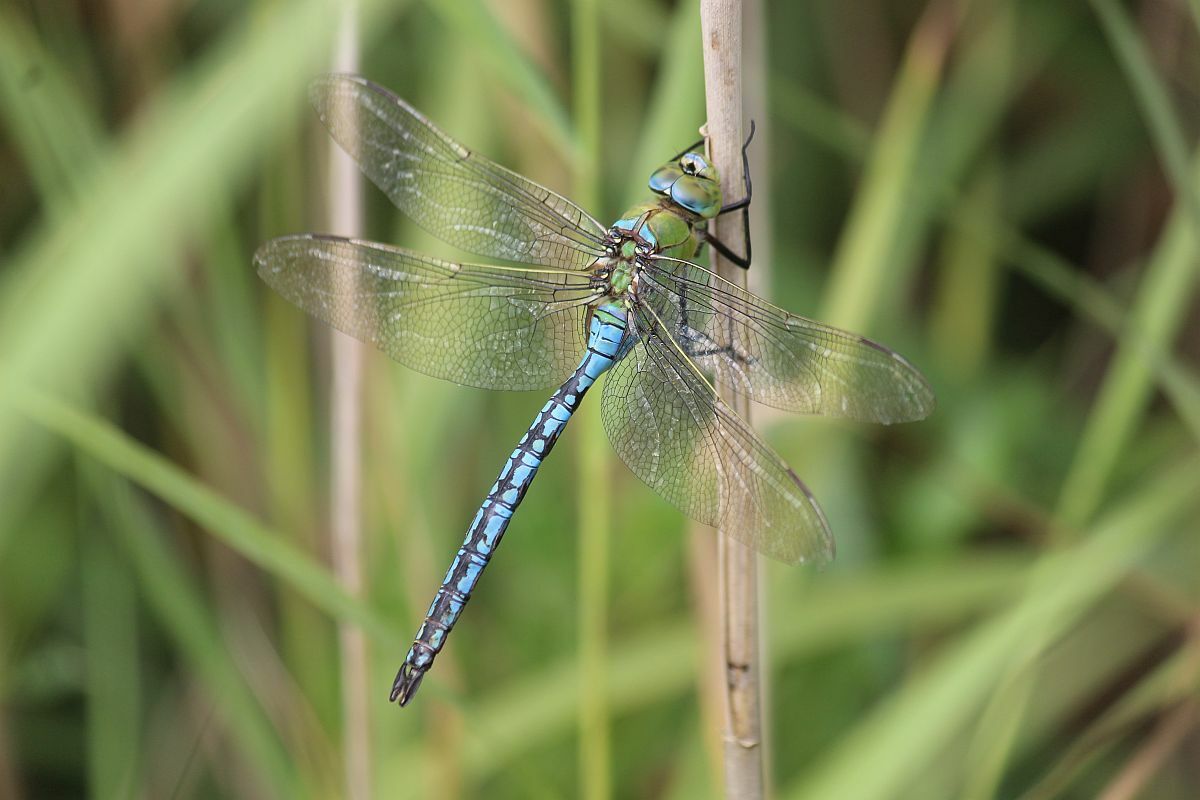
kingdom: Animalia
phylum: Arthropoda
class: Insecta
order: Odonata
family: Aeshnidae
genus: Anax
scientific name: Anax imperator
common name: Emperor dragonfly
